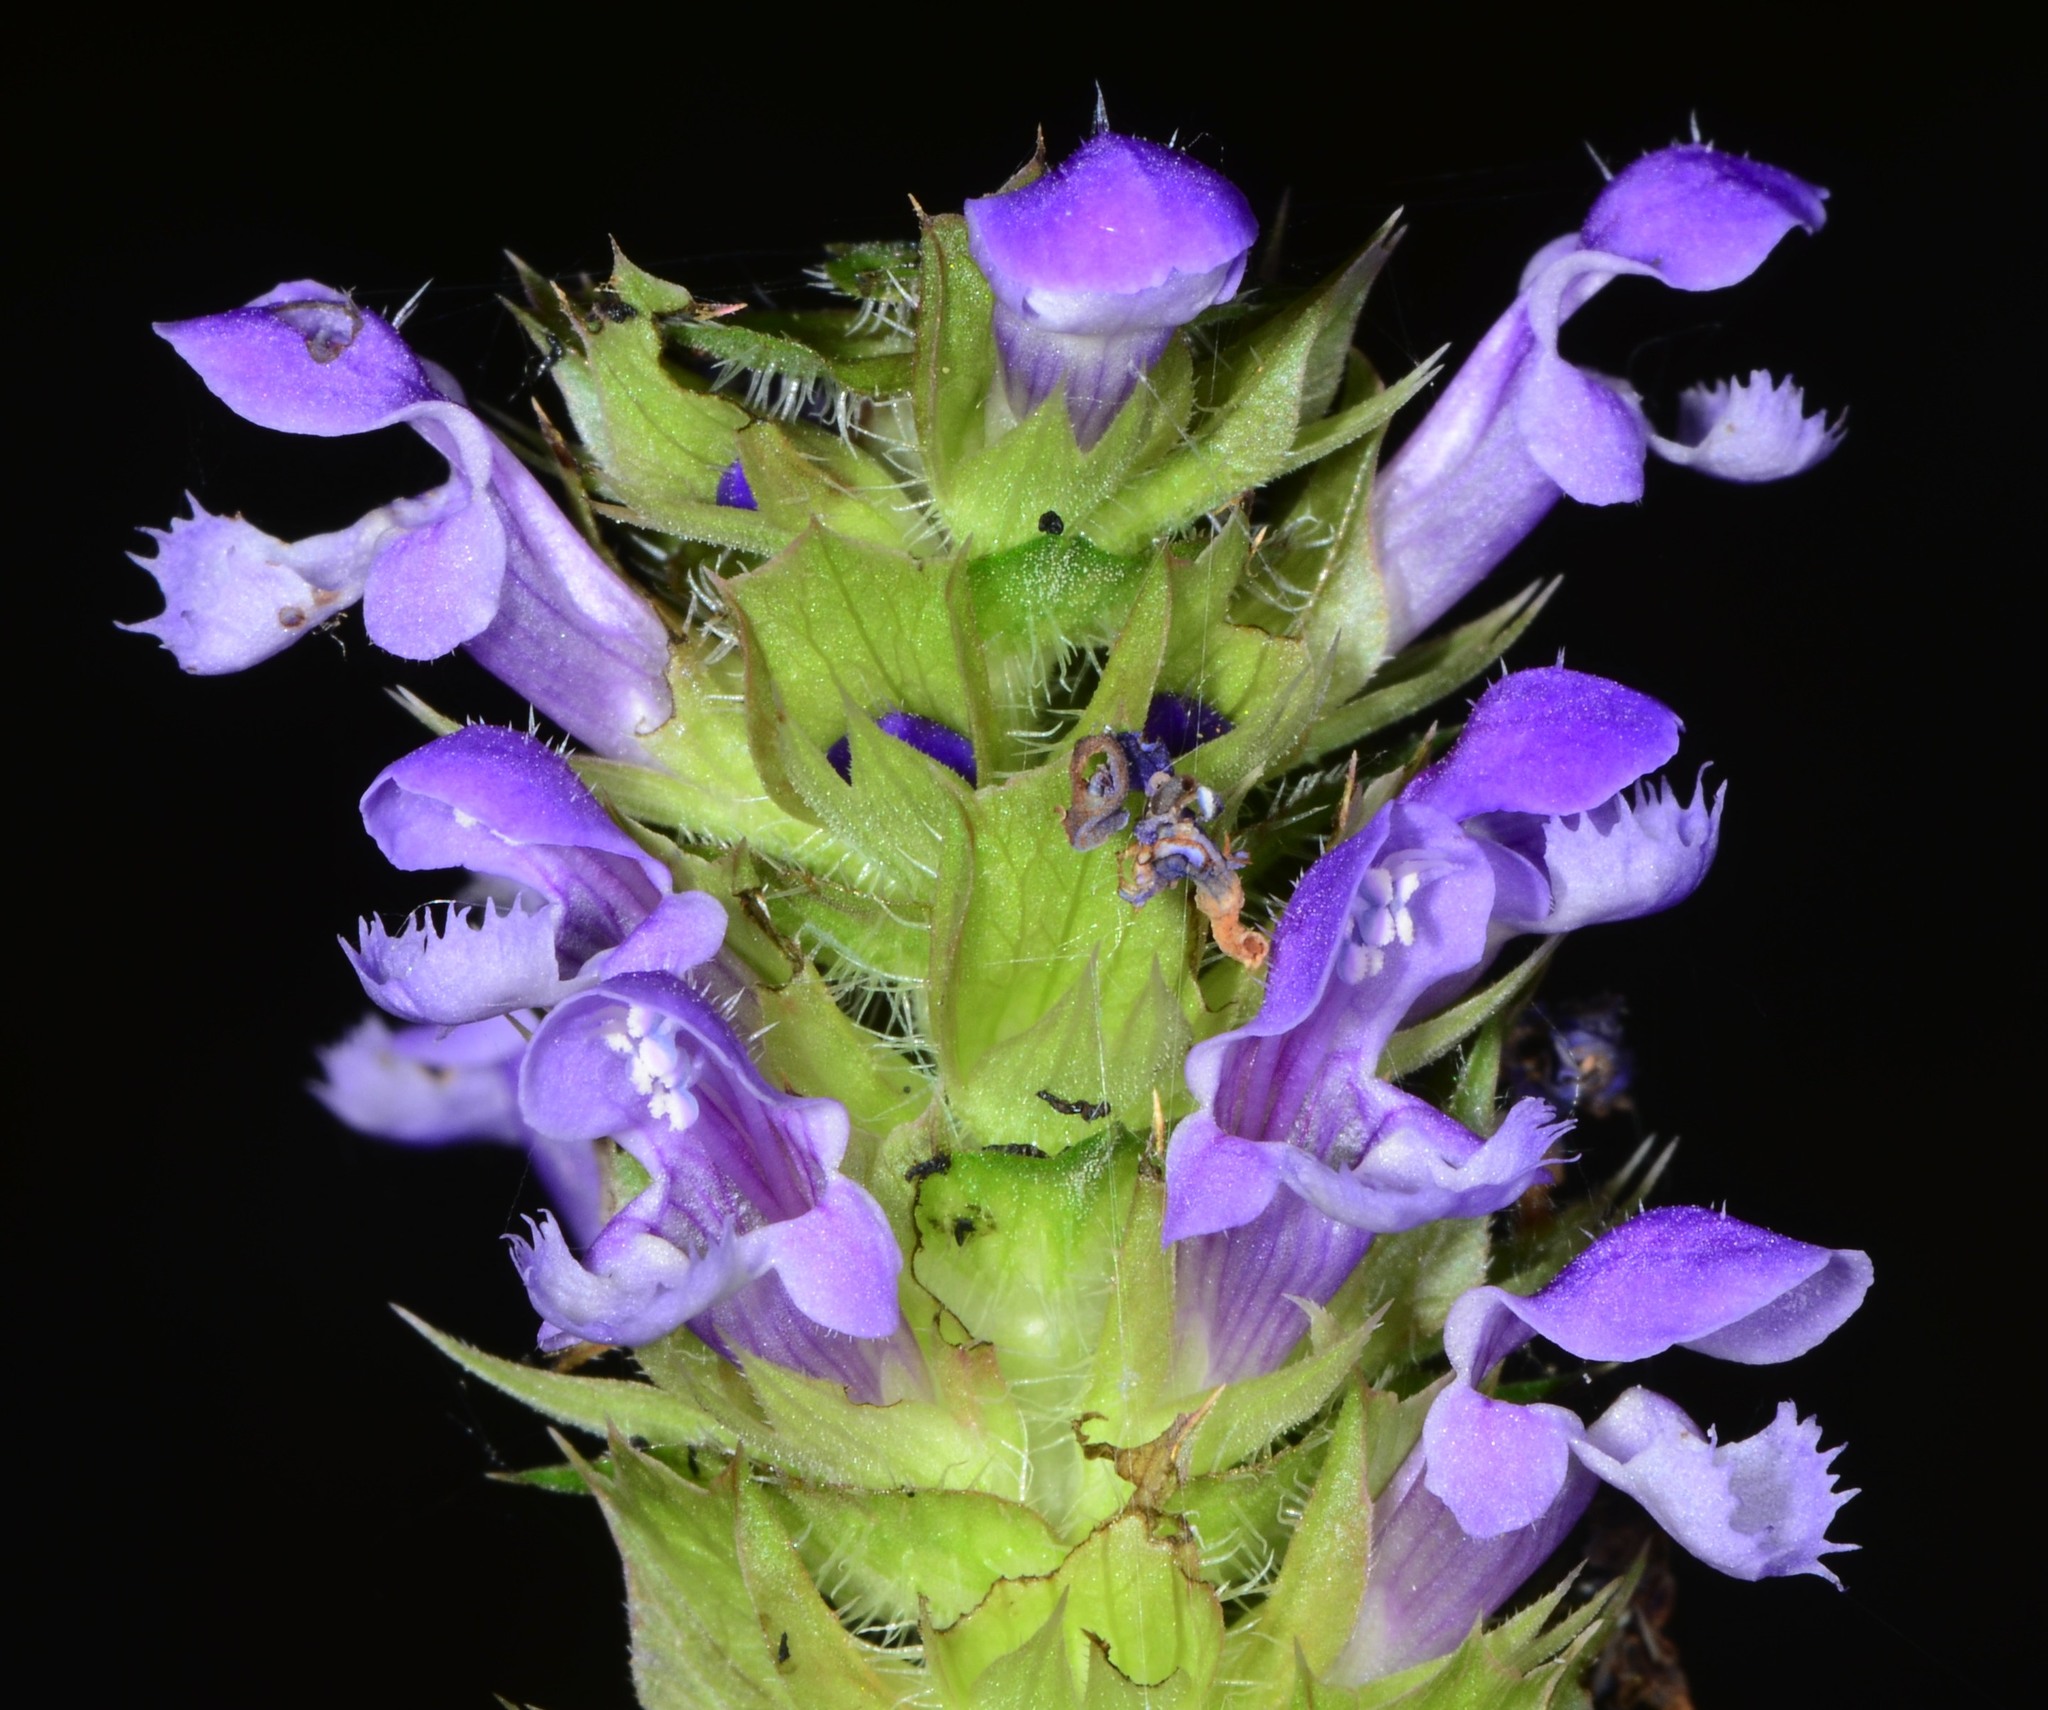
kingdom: Plantae
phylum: Tracheophyta
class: Magnoliopsida
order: Lamiales
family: Lamiaceae
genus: Prunella
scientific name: Prunella vulgaris
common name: Heal-all
